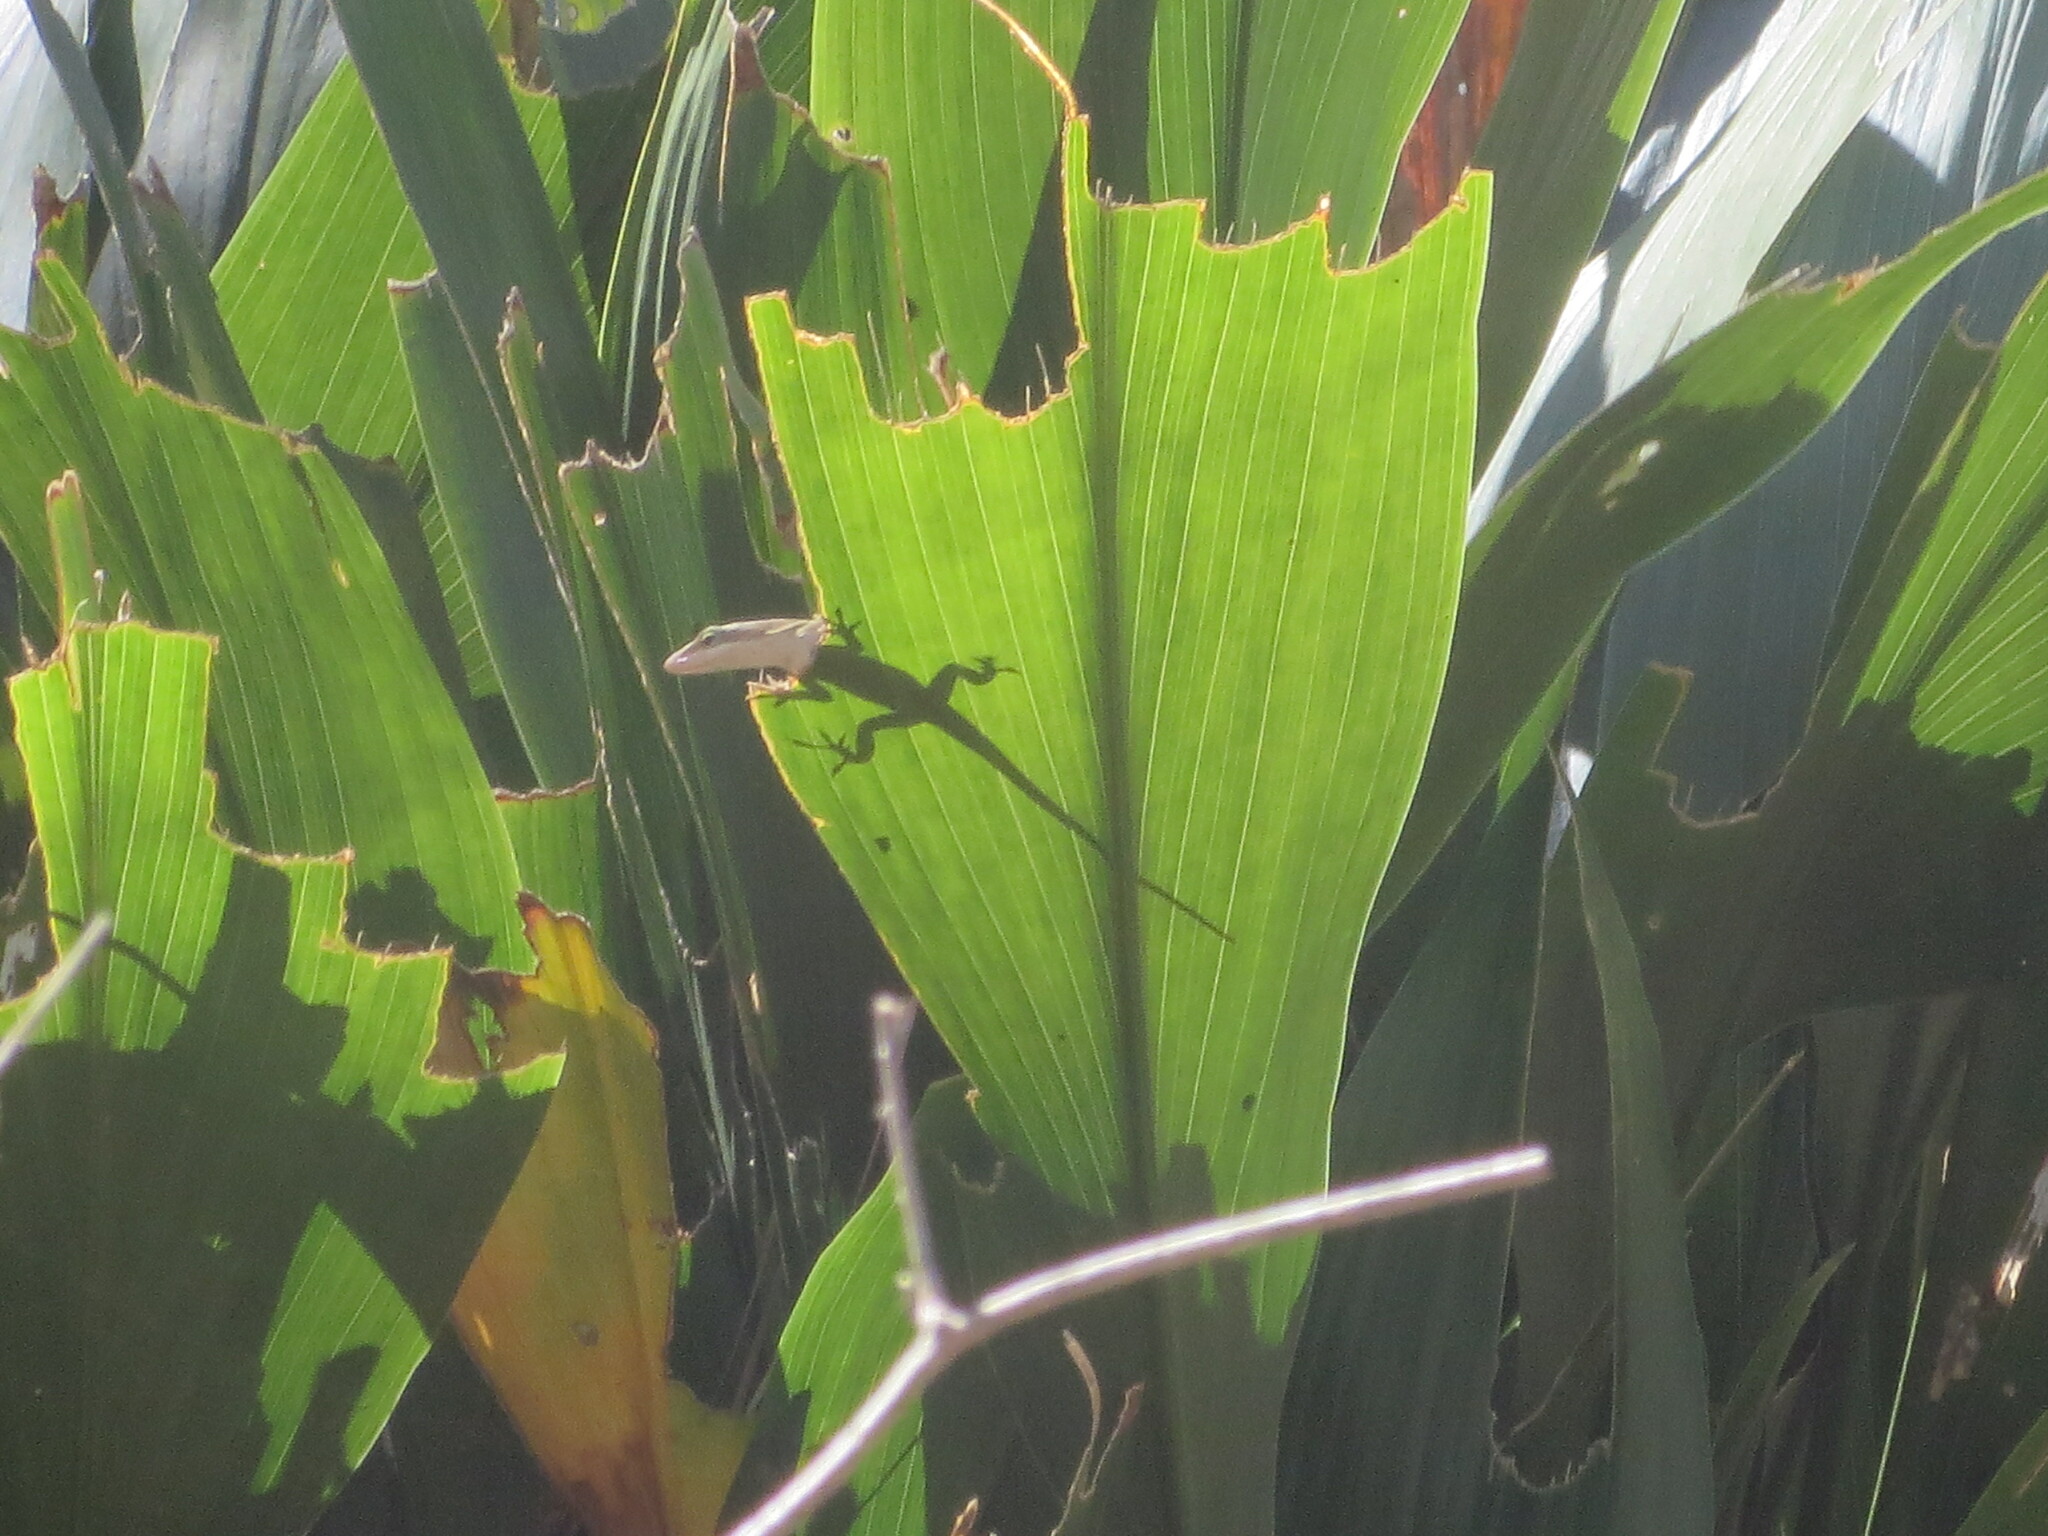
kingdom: Animalia
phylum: Chordata
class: Squamata
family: Dactyloidae
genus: Anolis
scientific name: Anolis carolinensis
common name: Green anole
